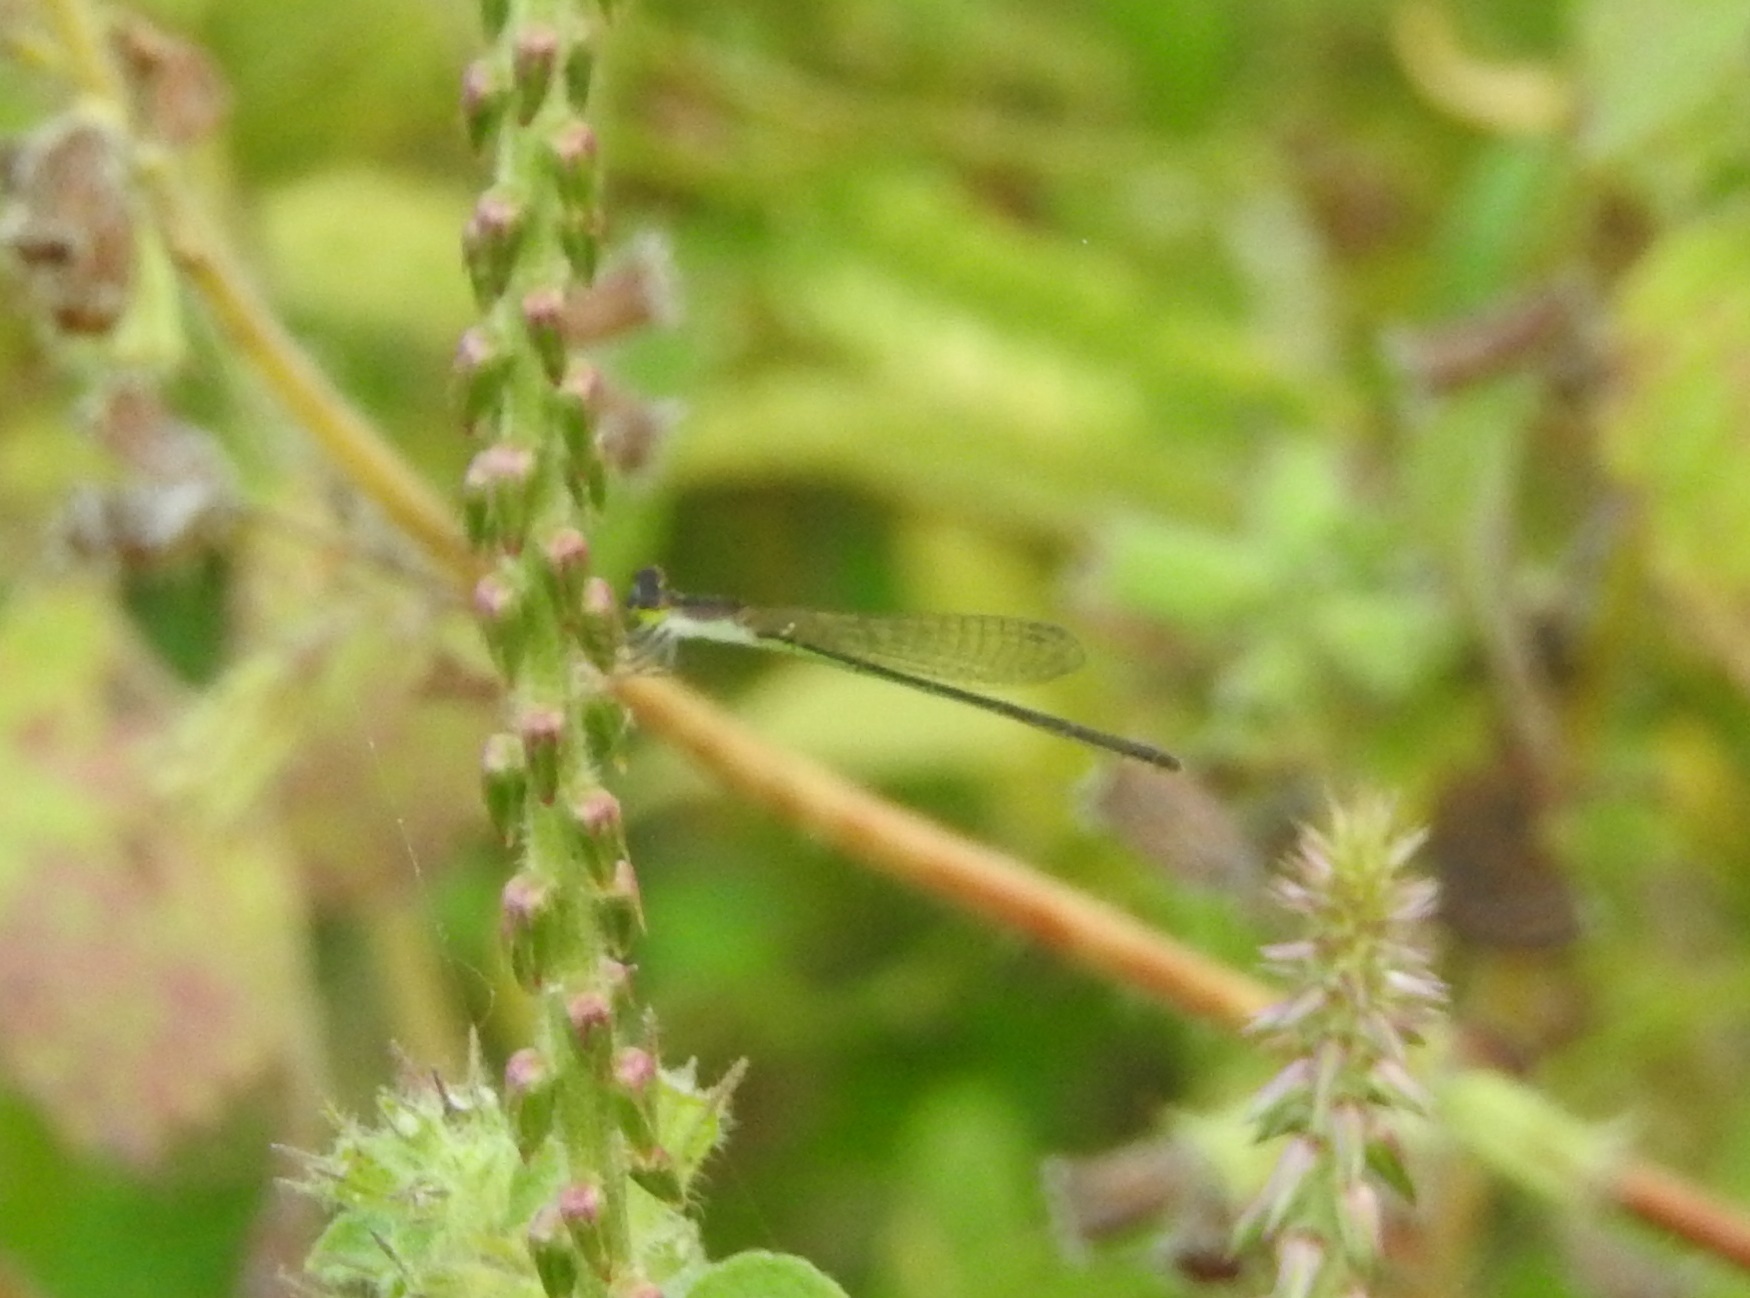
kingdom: Animalia
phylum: Arthropoda
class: Insecta
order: Odonata
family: Coenagrionidae
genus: Agriocnemis
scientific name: Agriocnemis pygmaea
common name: Pygmy wisp
